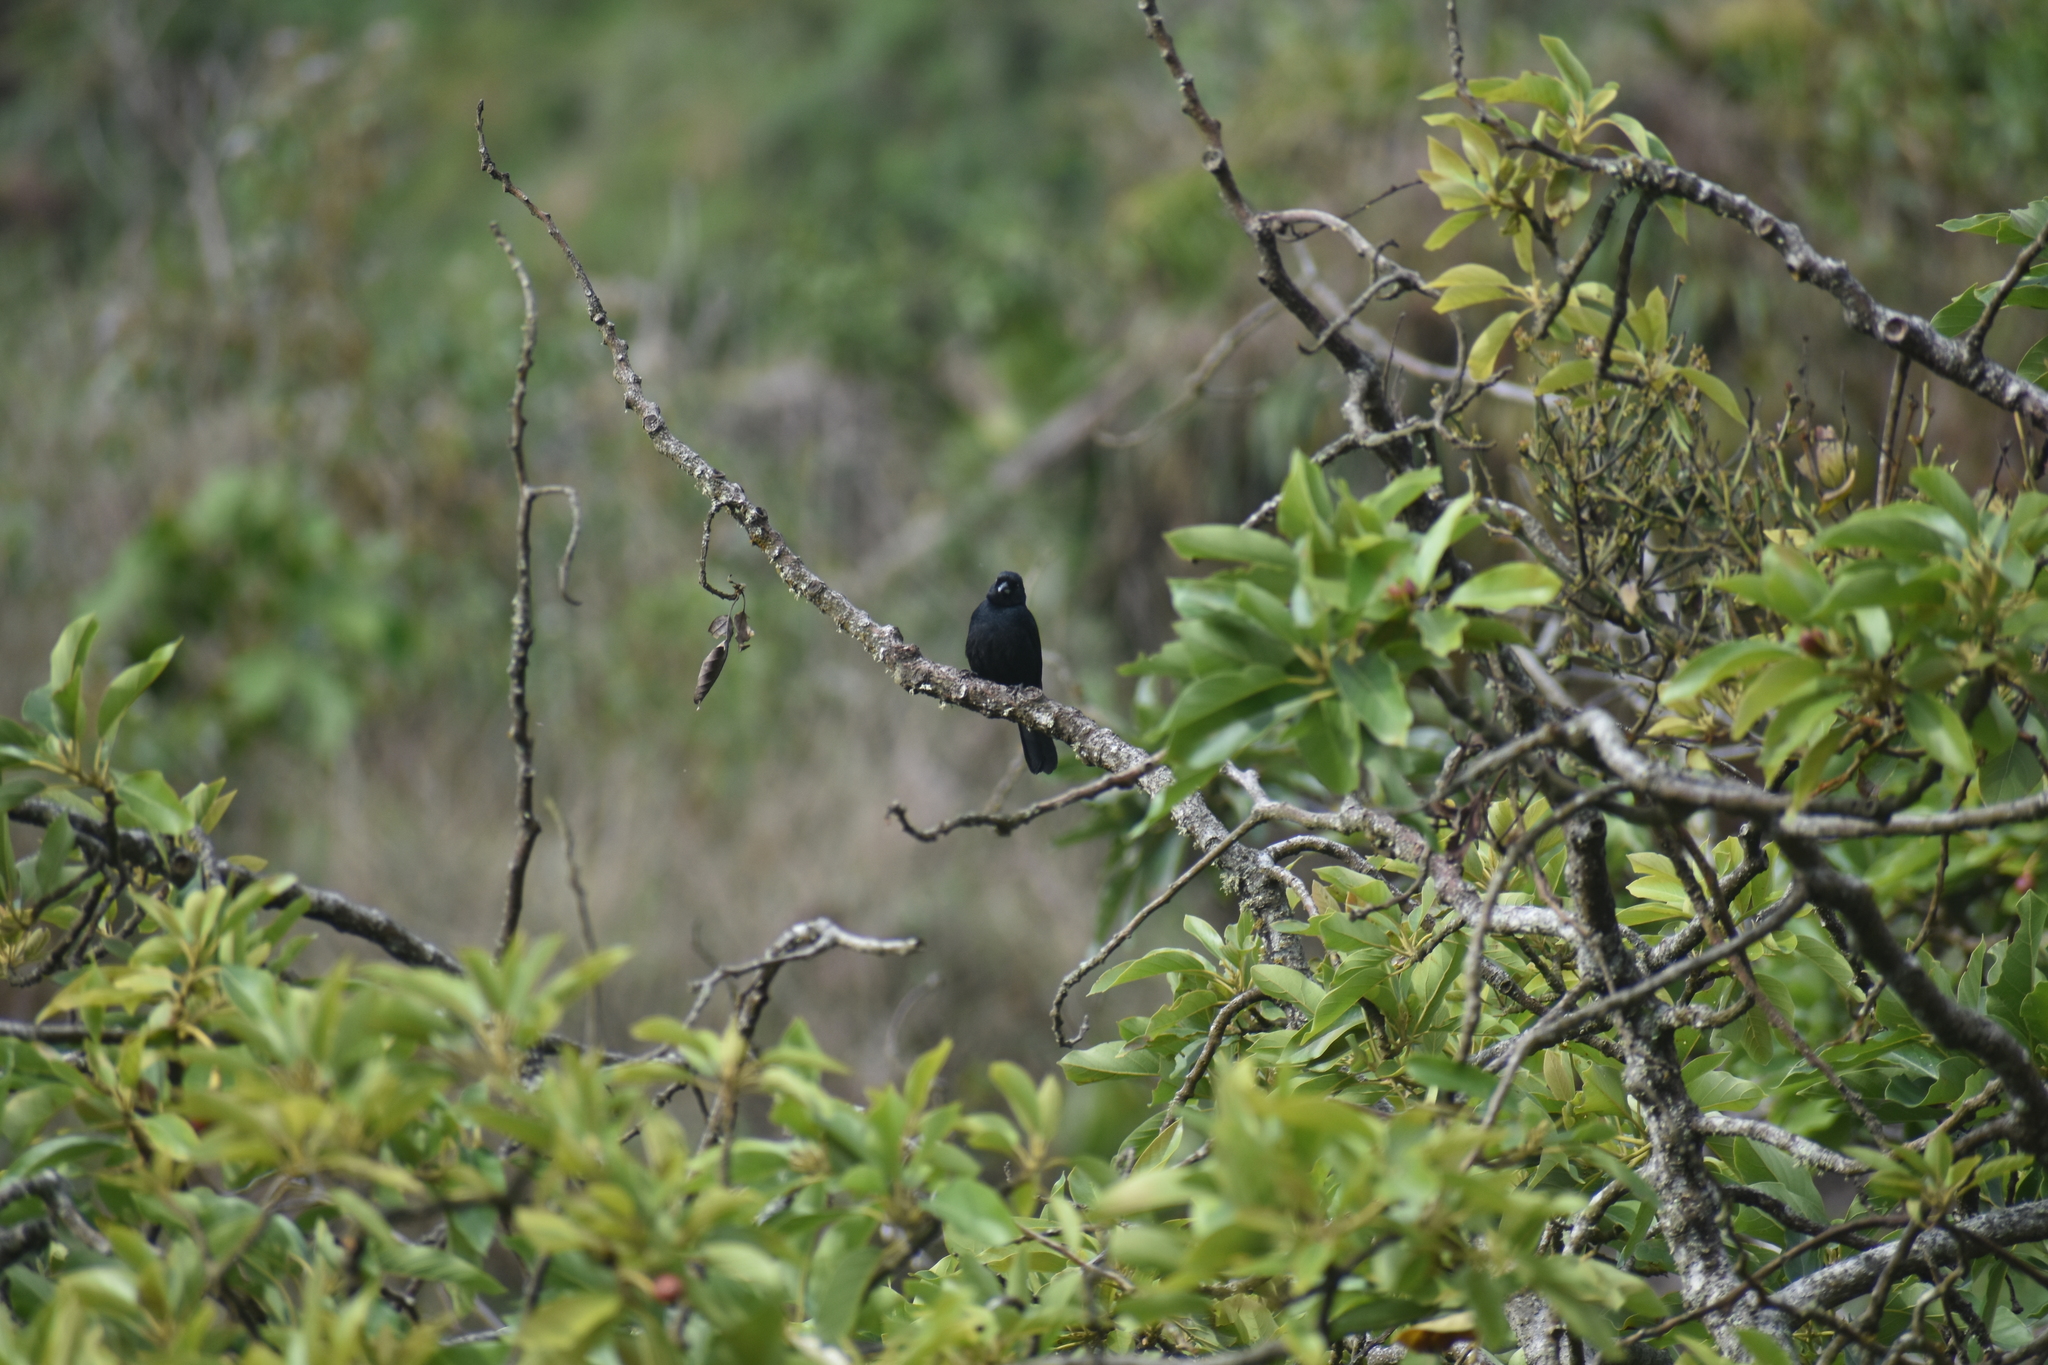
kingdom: Animalia
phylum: Chordata
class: Aves
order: Passeriformes
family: Thraupidae
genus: Volatinia
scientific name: Volatinia jacarina
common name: Blue-black grassquit
